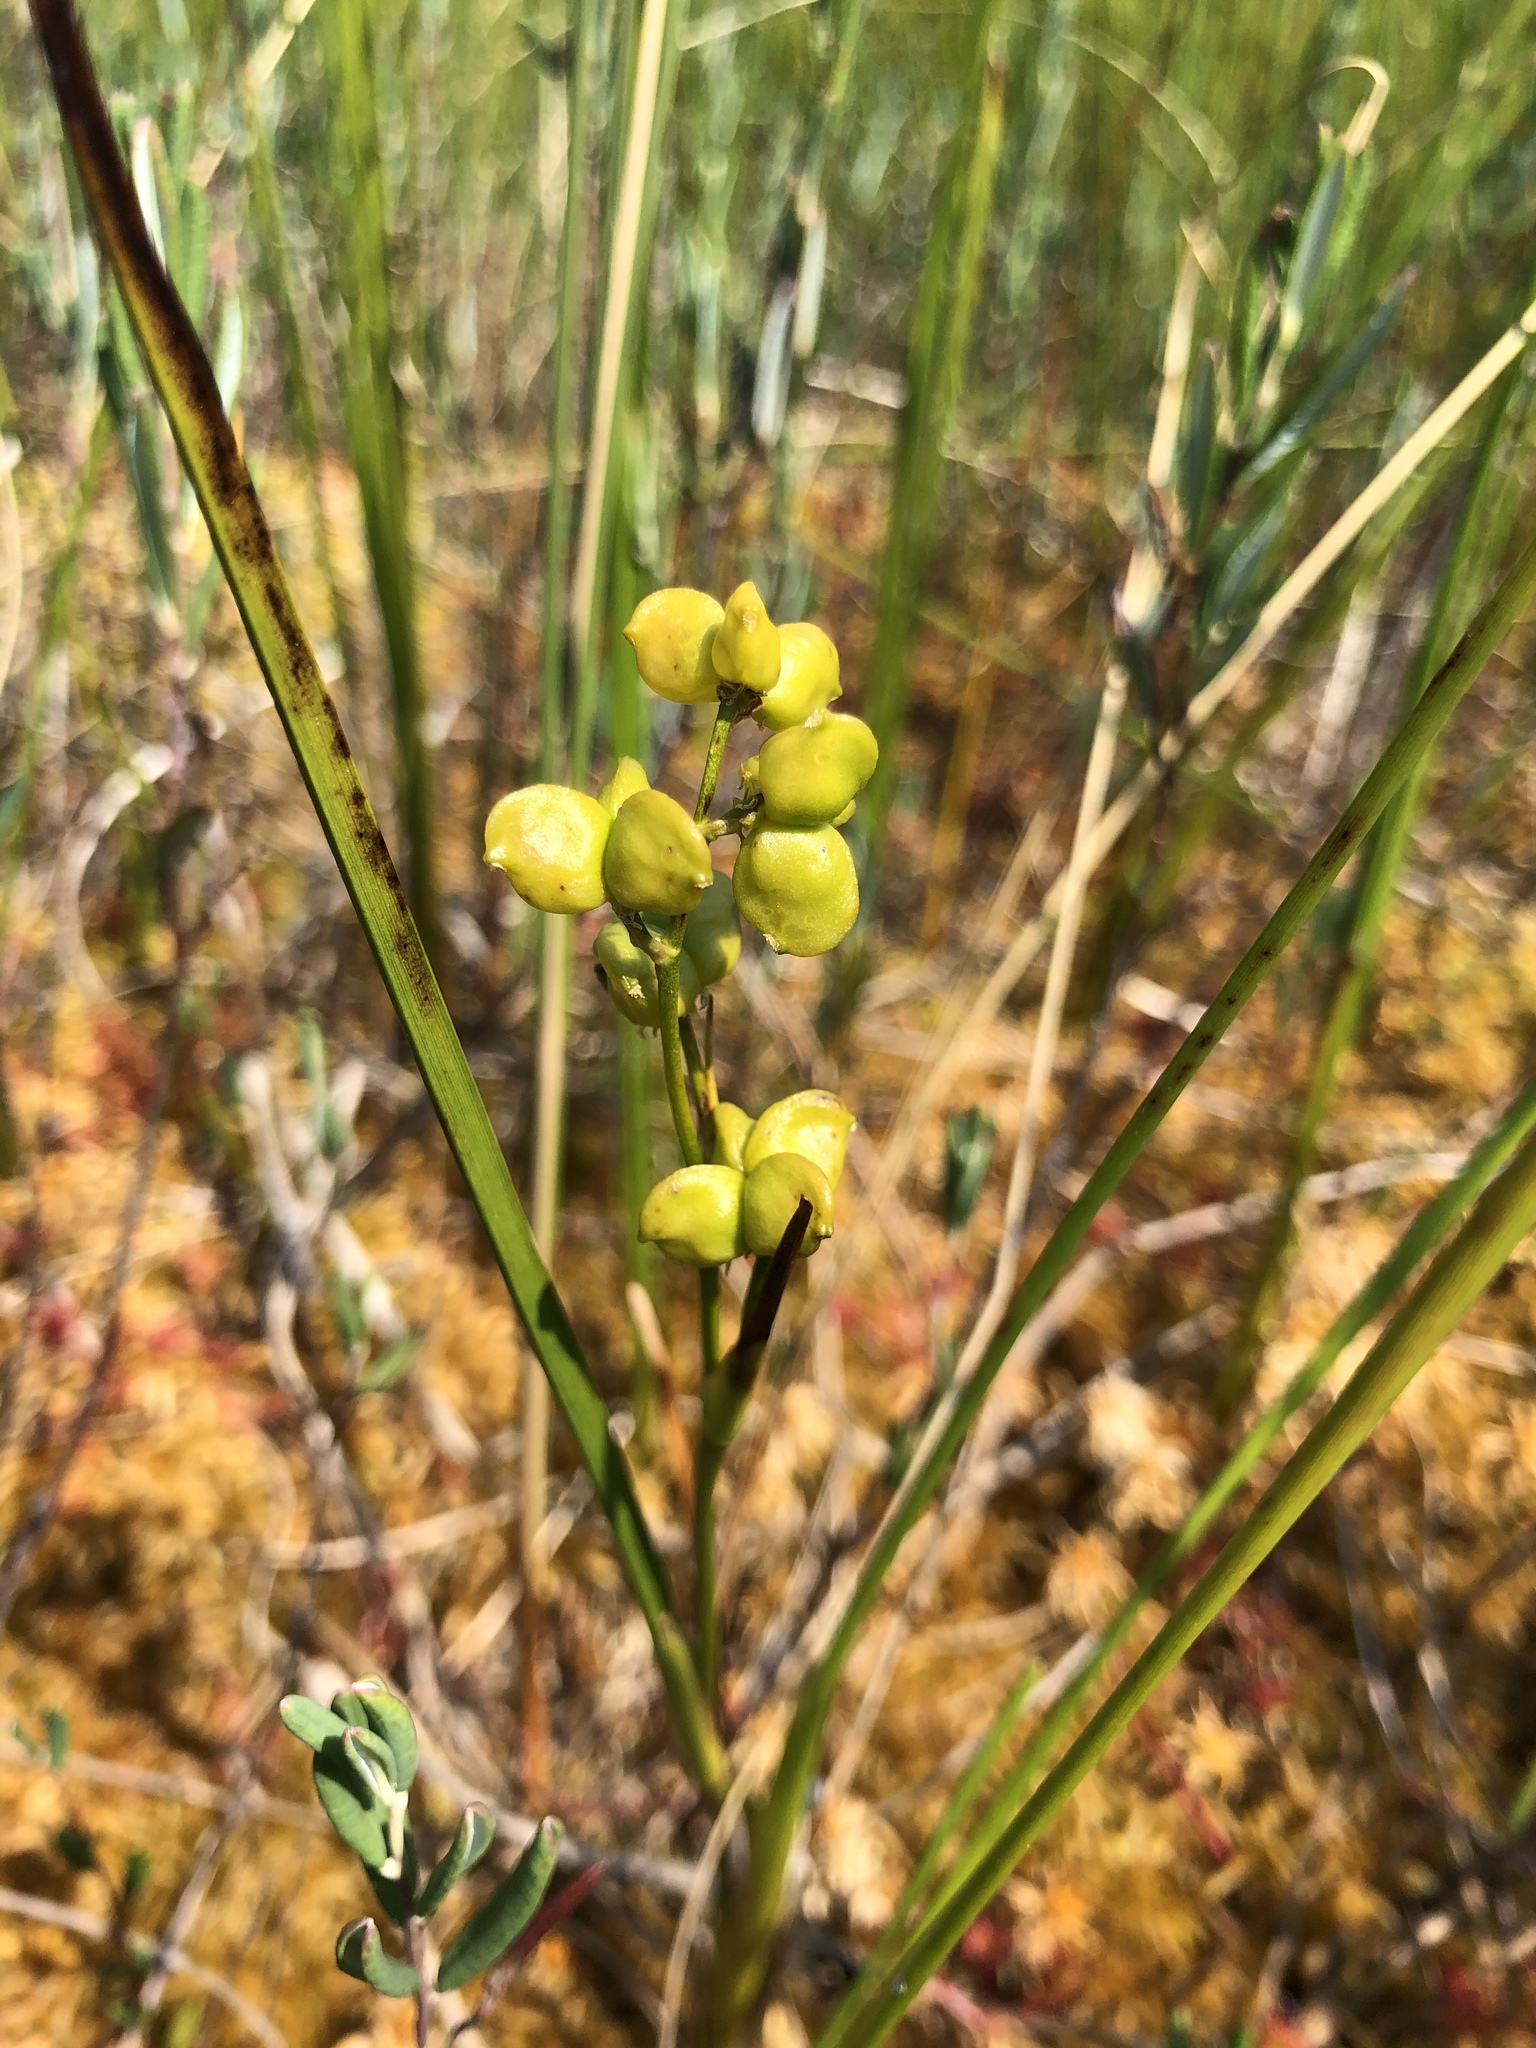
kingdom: Plantae
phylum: Tracheophyta
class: Liliopsida
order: Alismatales
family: Scheuchzeriaceae
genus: Scheuchzeria
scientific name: Scheuchzeria palustris
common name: Rannoch-rush
